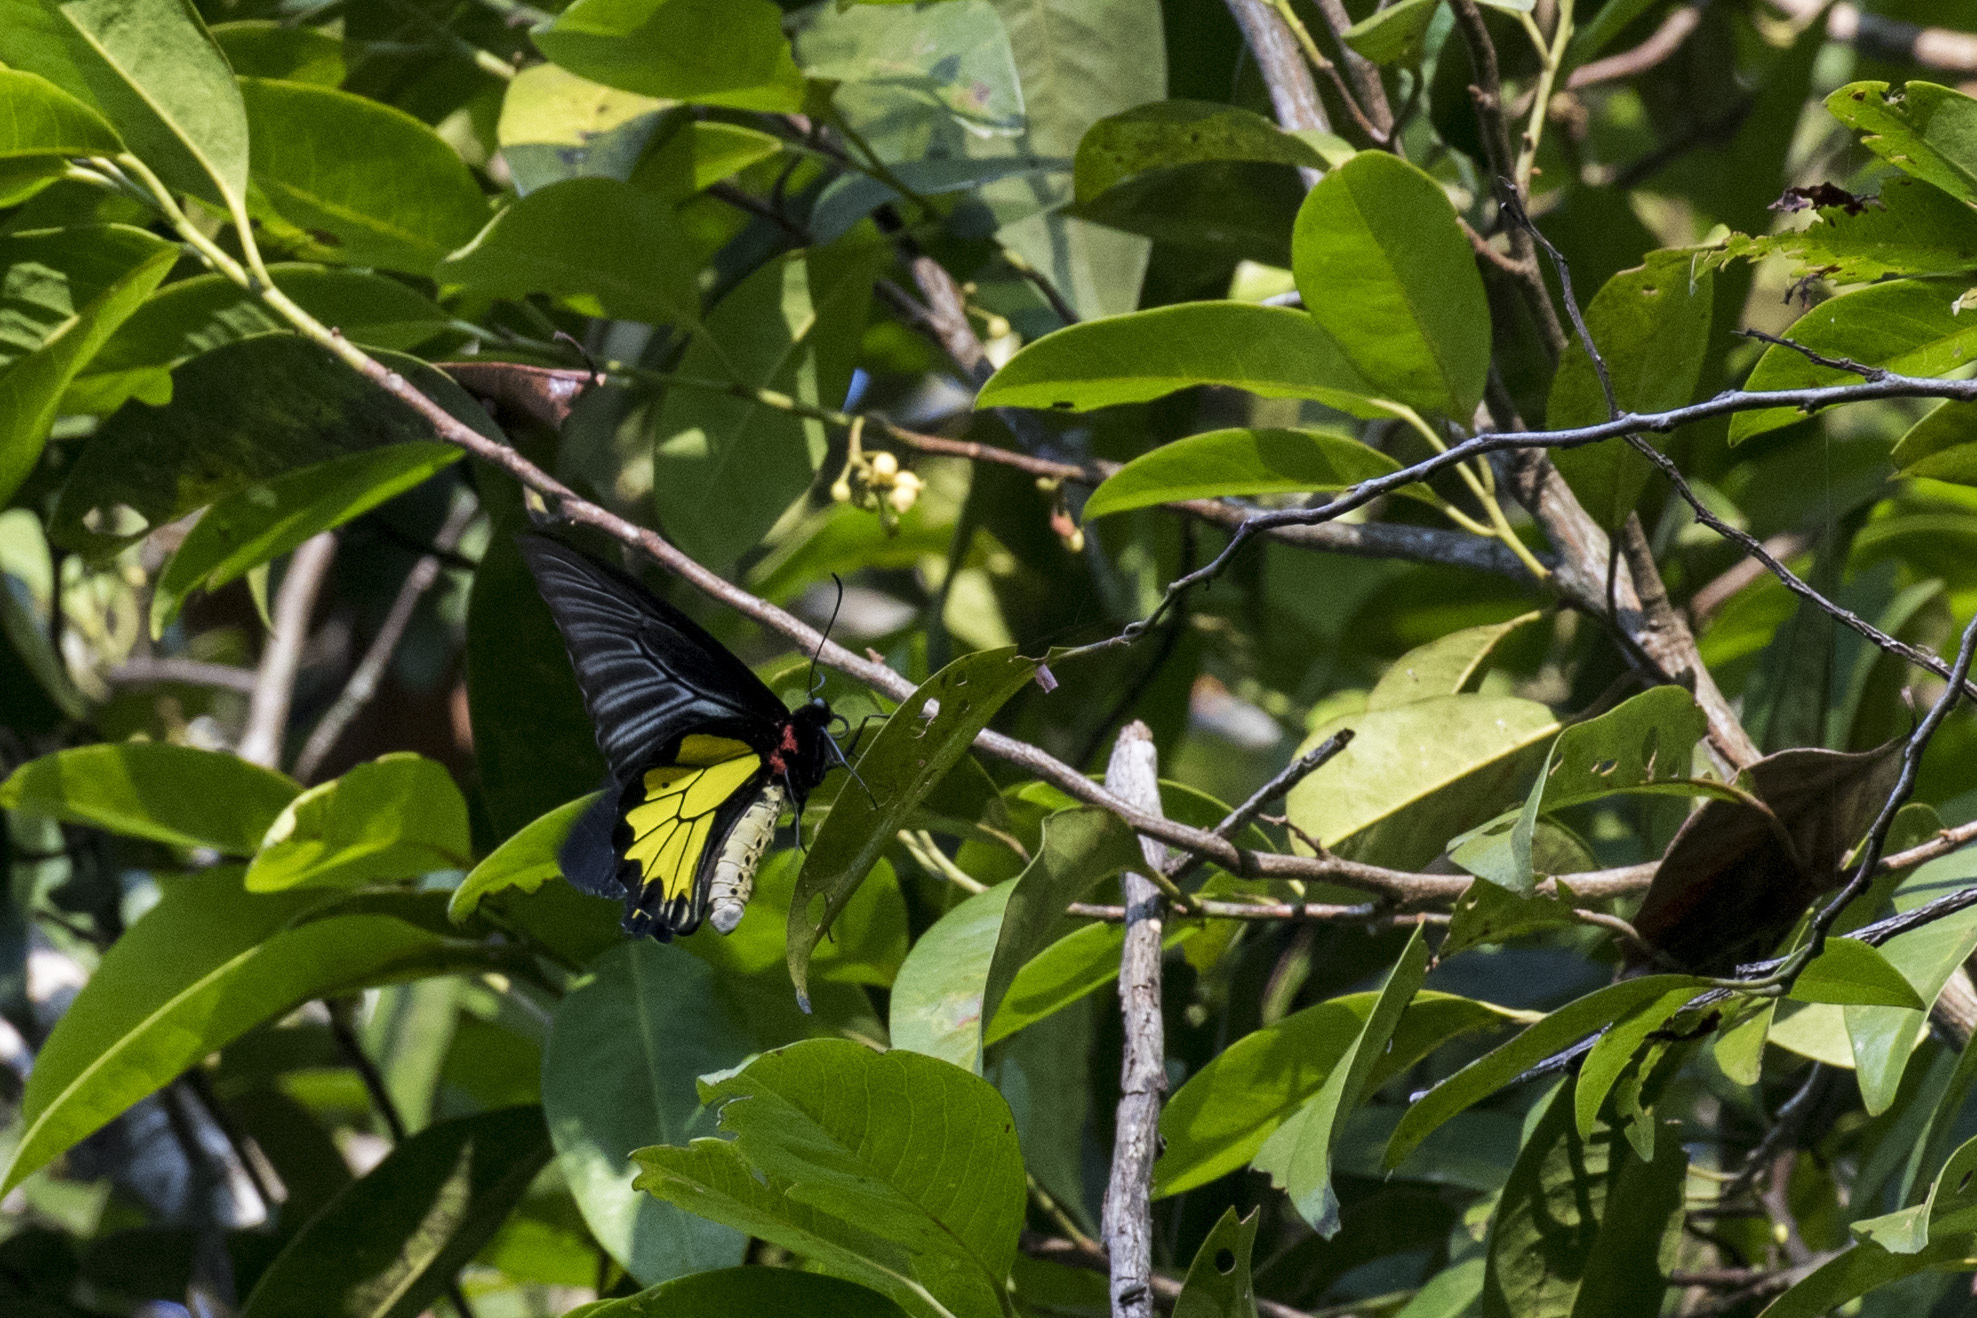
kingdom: Animalia
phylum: Arthropoda
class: Insecta
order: Lepidoptera
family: Papilionidae
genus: Troides
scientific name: Troides minos
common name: Malabar birdwing
